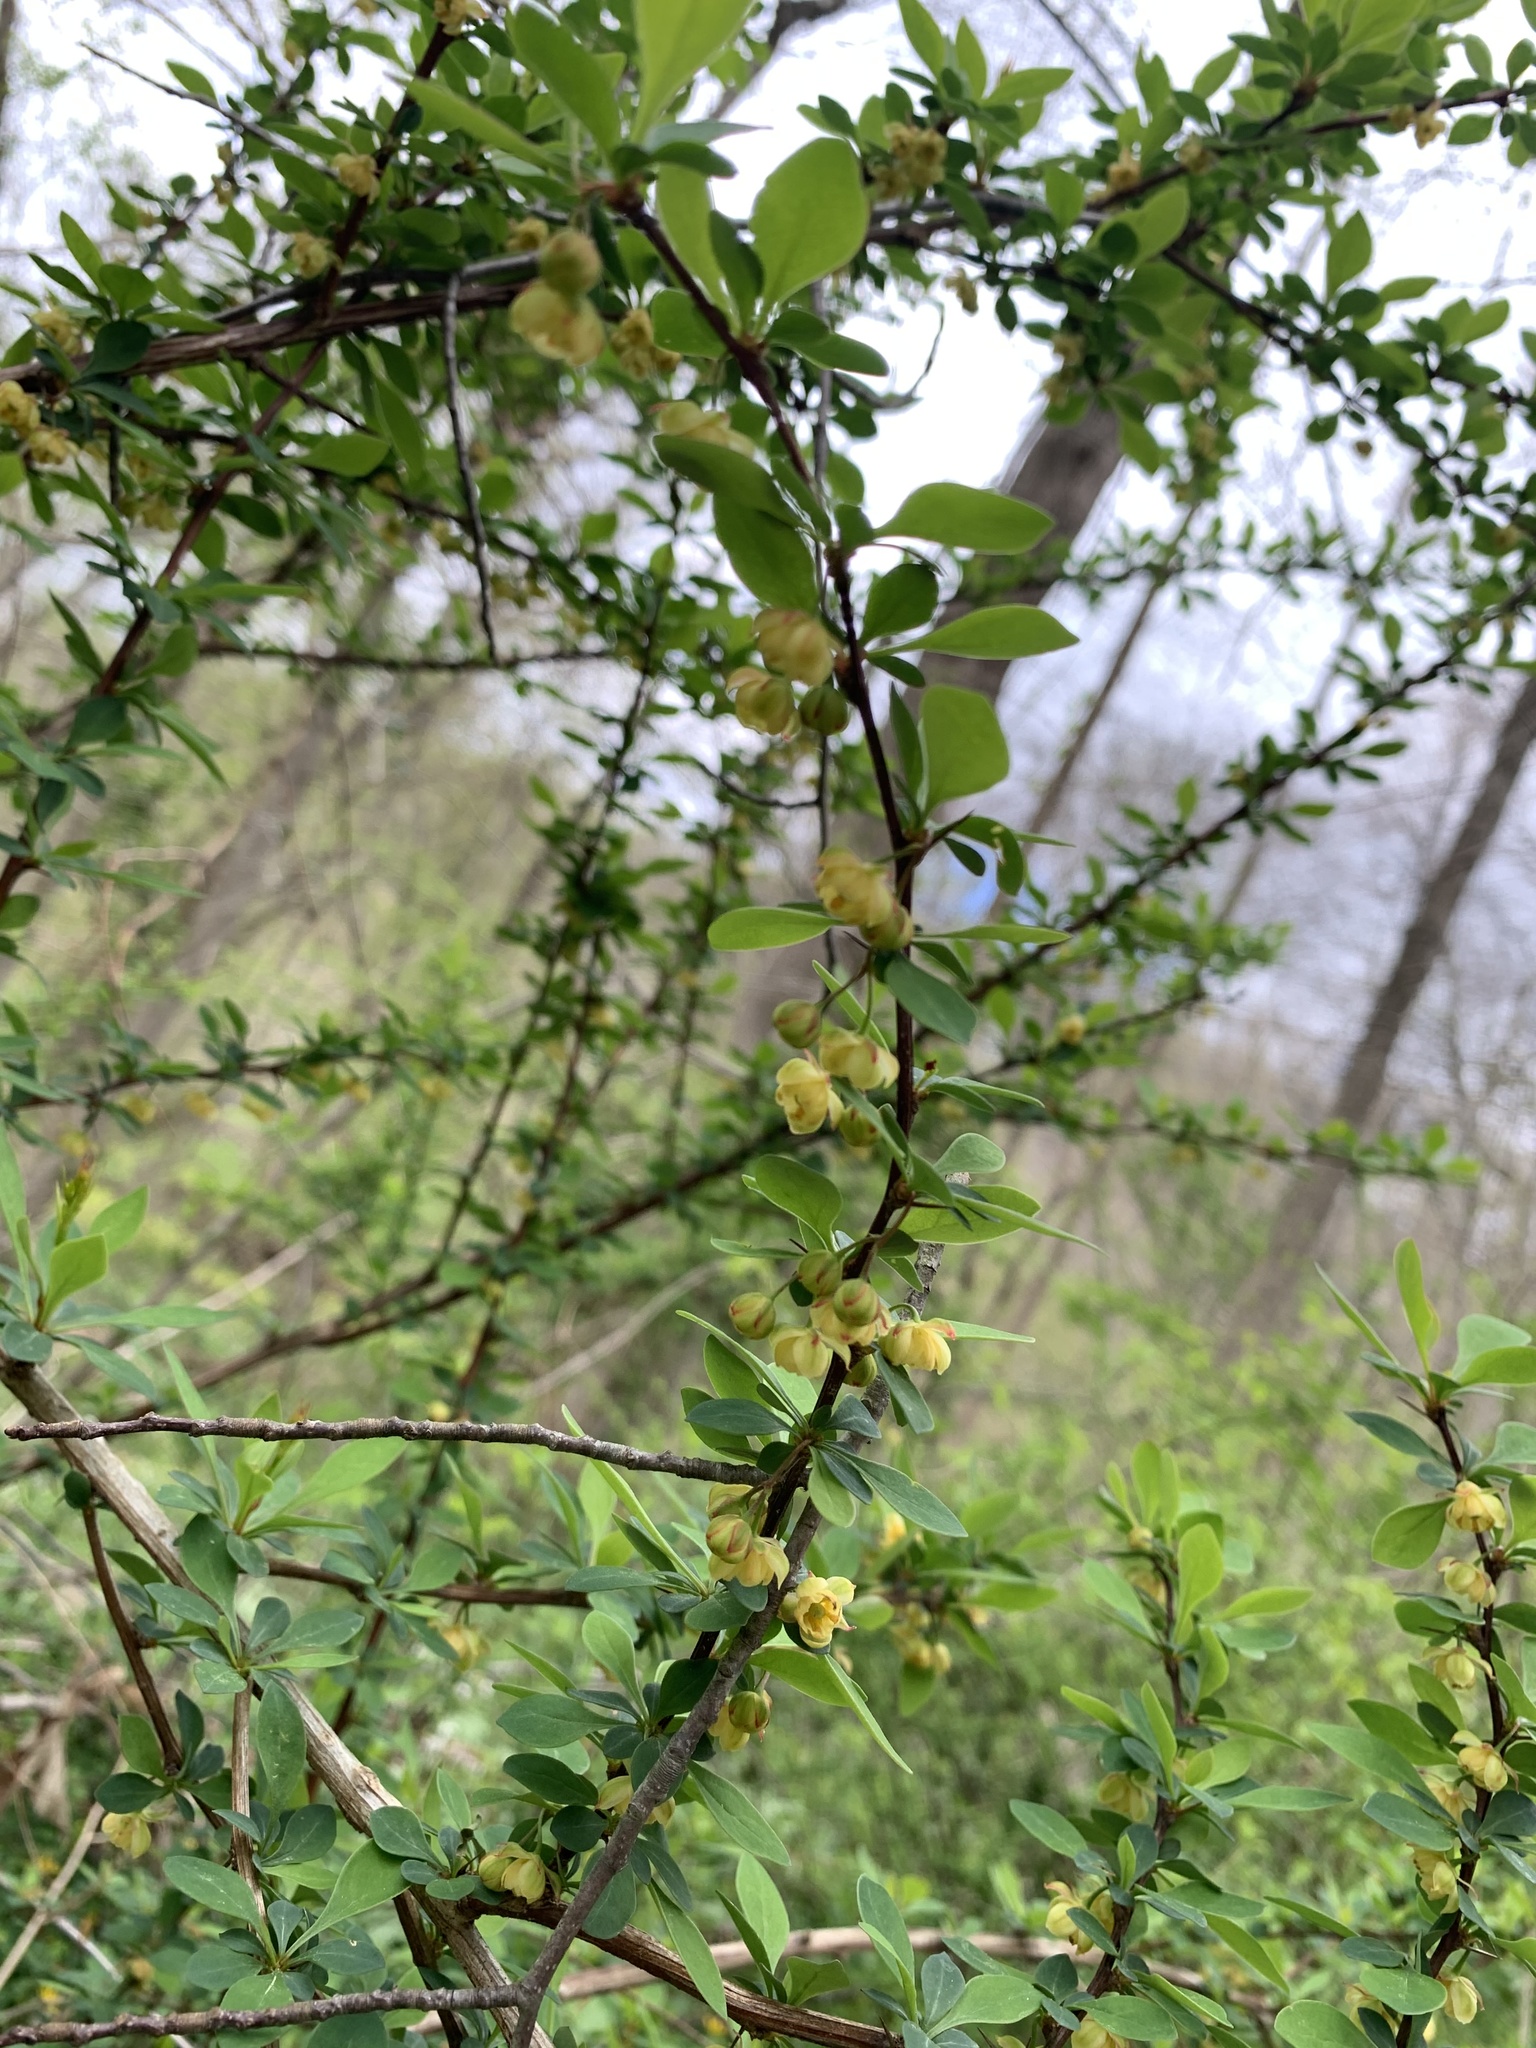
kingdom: Plantae
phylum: Tracheophyta
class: Magnoliopsida
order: Ranunculales
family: Berberidaceae
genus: Berberis
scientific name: Berberis thunbergii
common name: Japanese barberry
